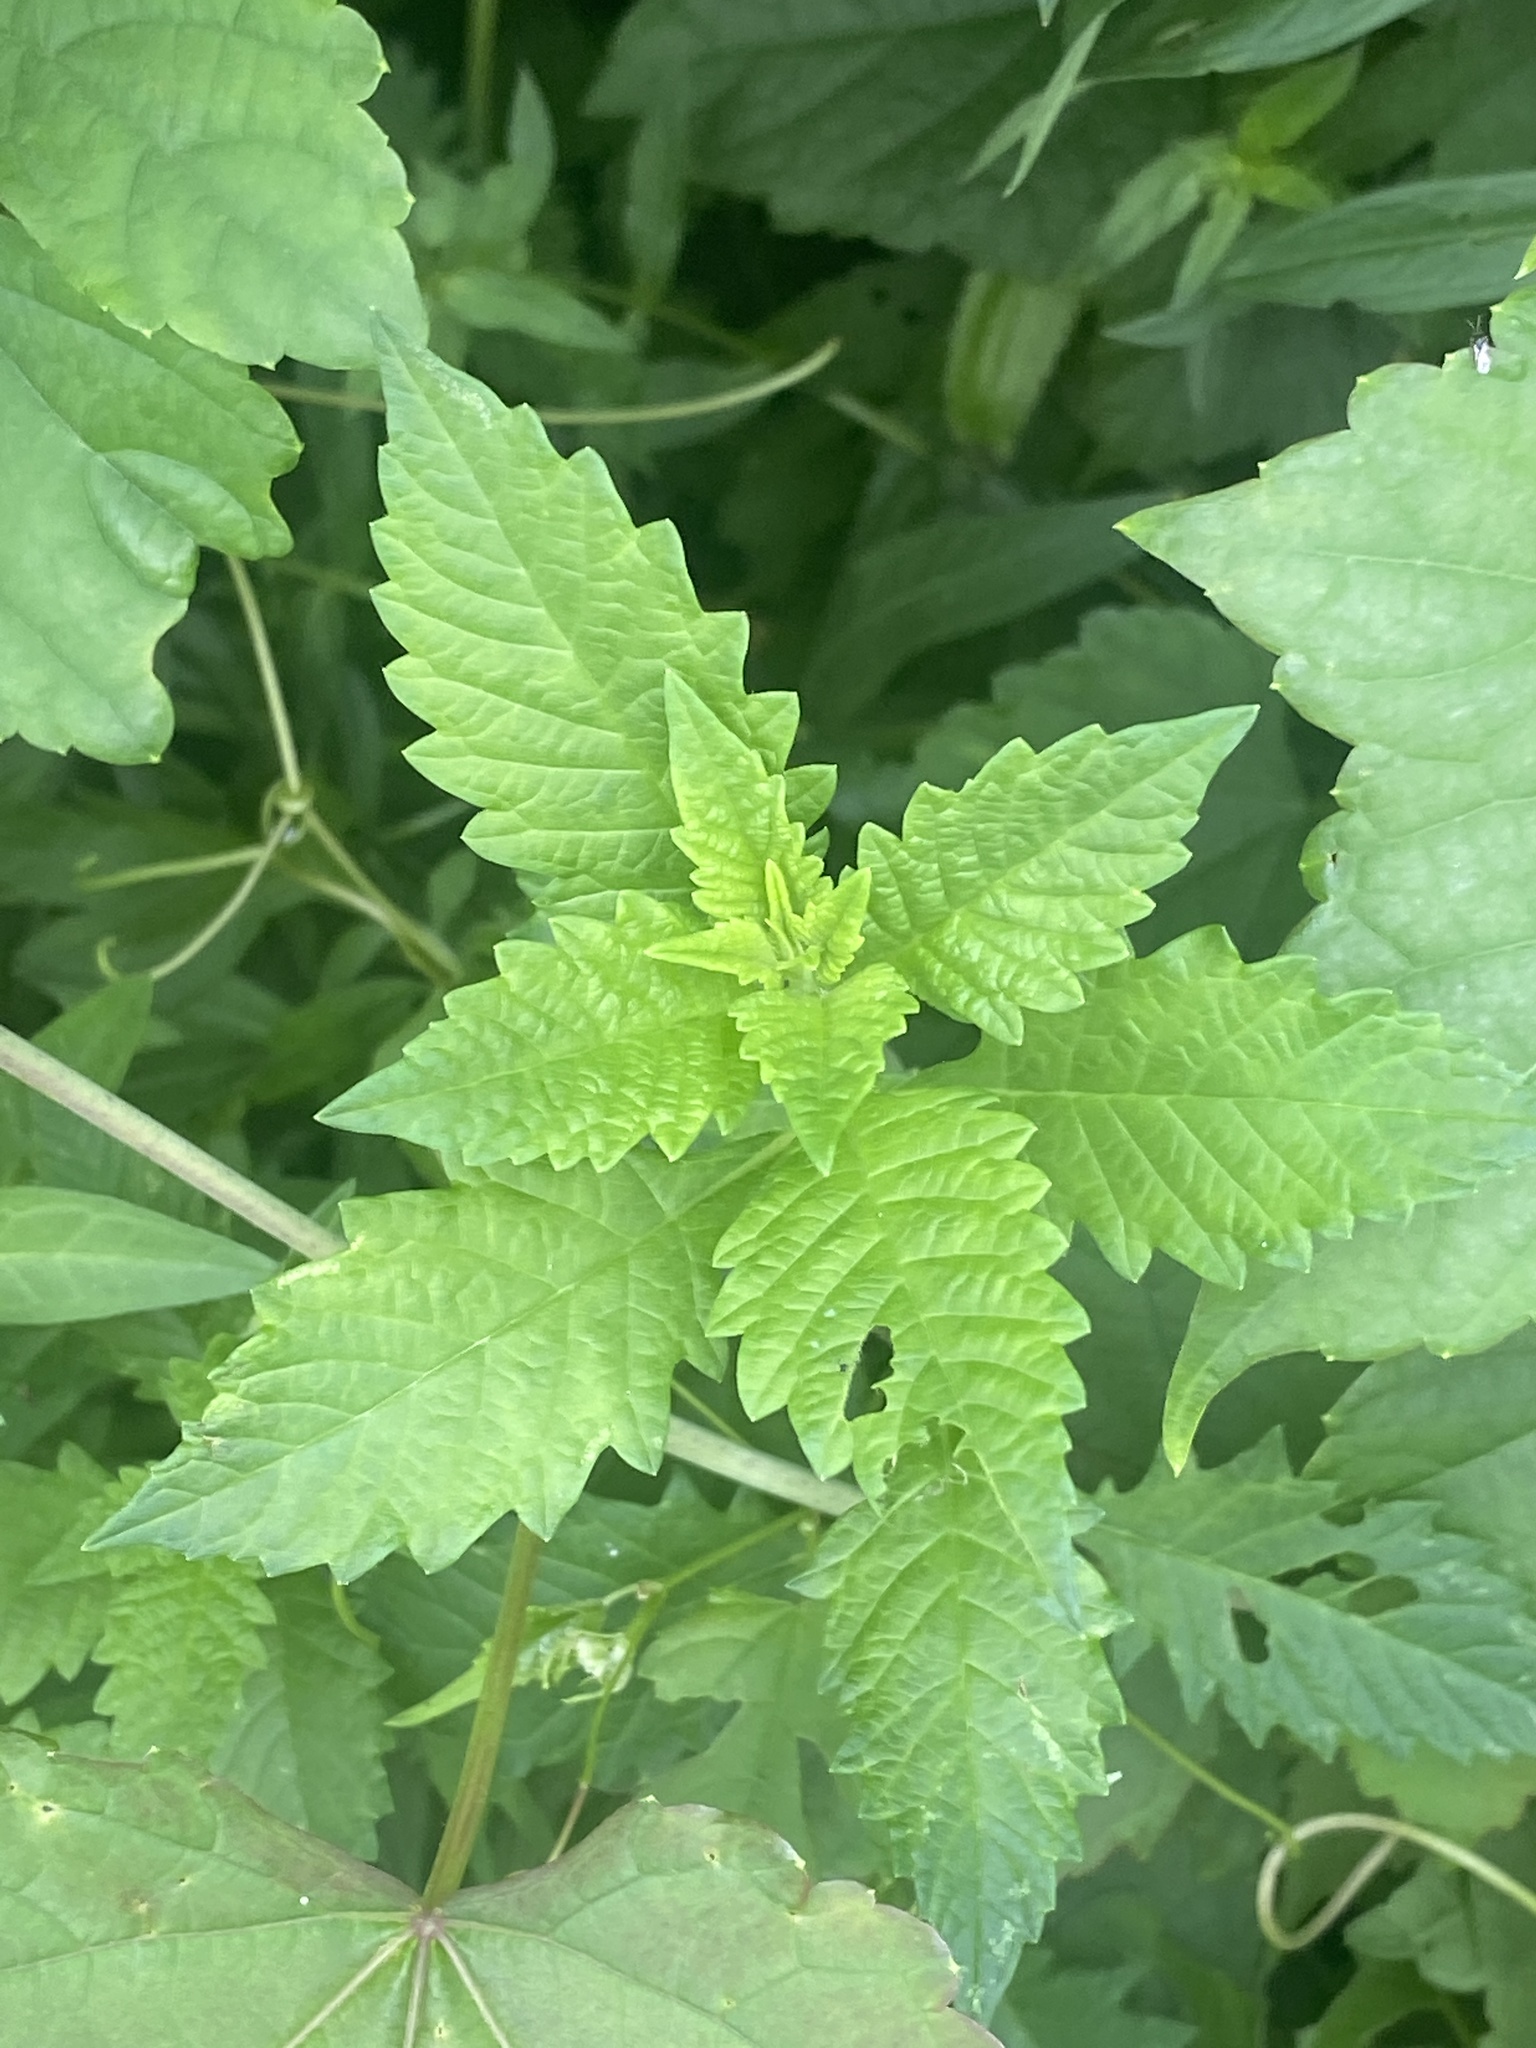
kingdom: Plantae
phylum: Tracheophyta
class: Magnoliopsida
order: Lamiales
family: Lamiaceae
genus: Lycopus
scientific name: Lycopus europaeus
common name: European bugleweed
